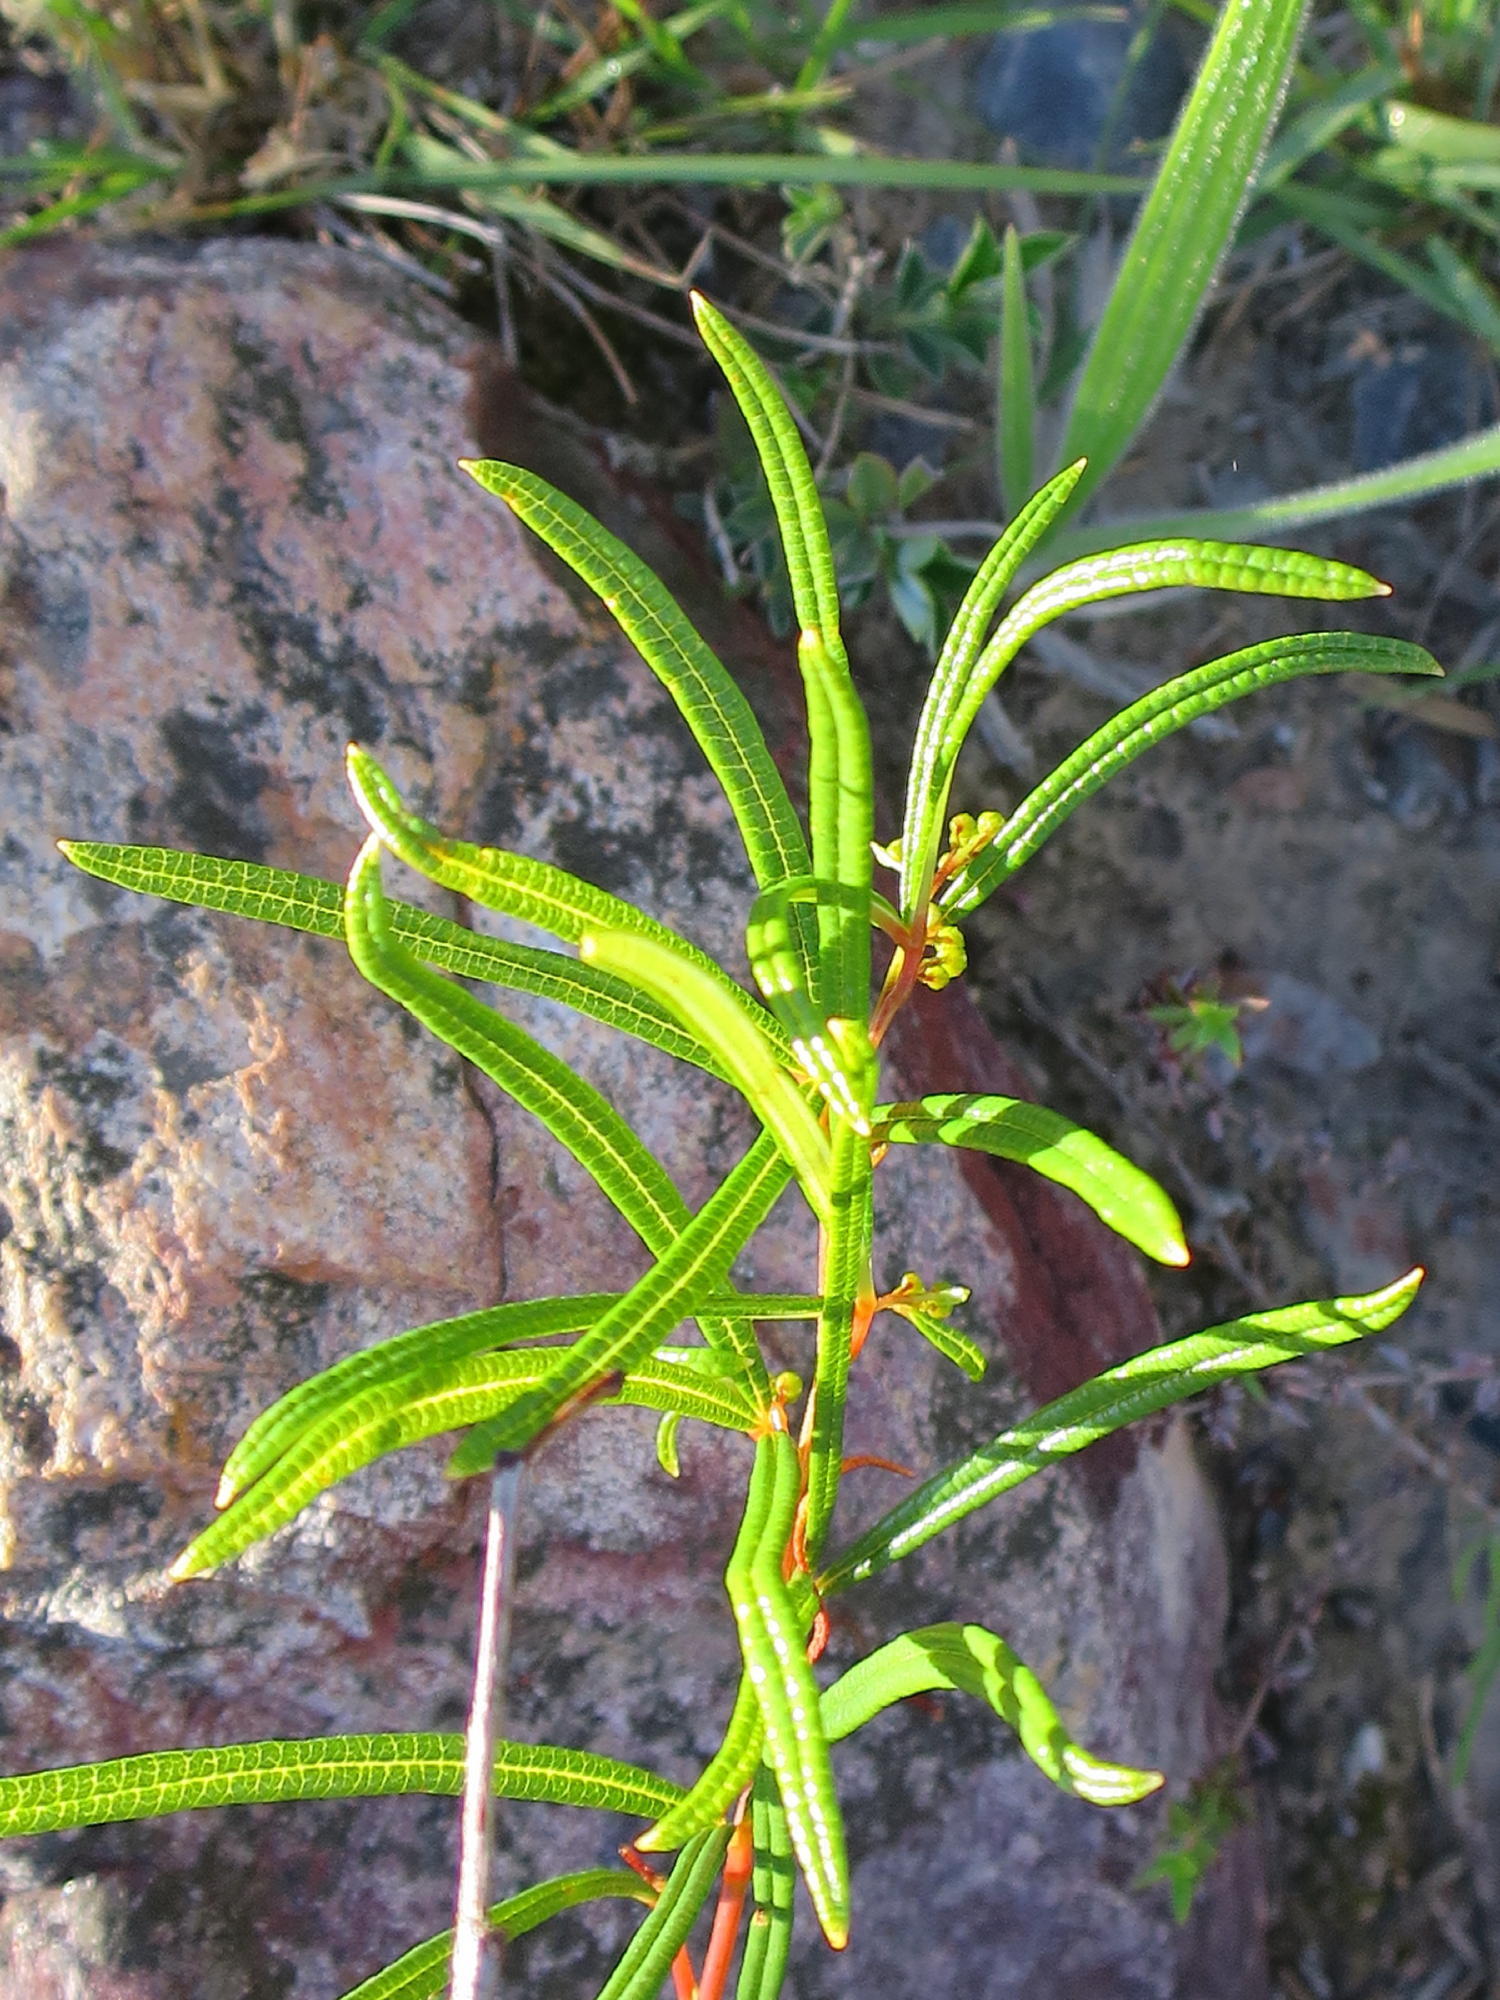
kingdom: Plantae
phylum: Tracheophyta
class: Magnoliopsida
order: Sapindales
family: Anacardiaceae
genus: Searsia
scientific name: Searsia rosmarinifolia
